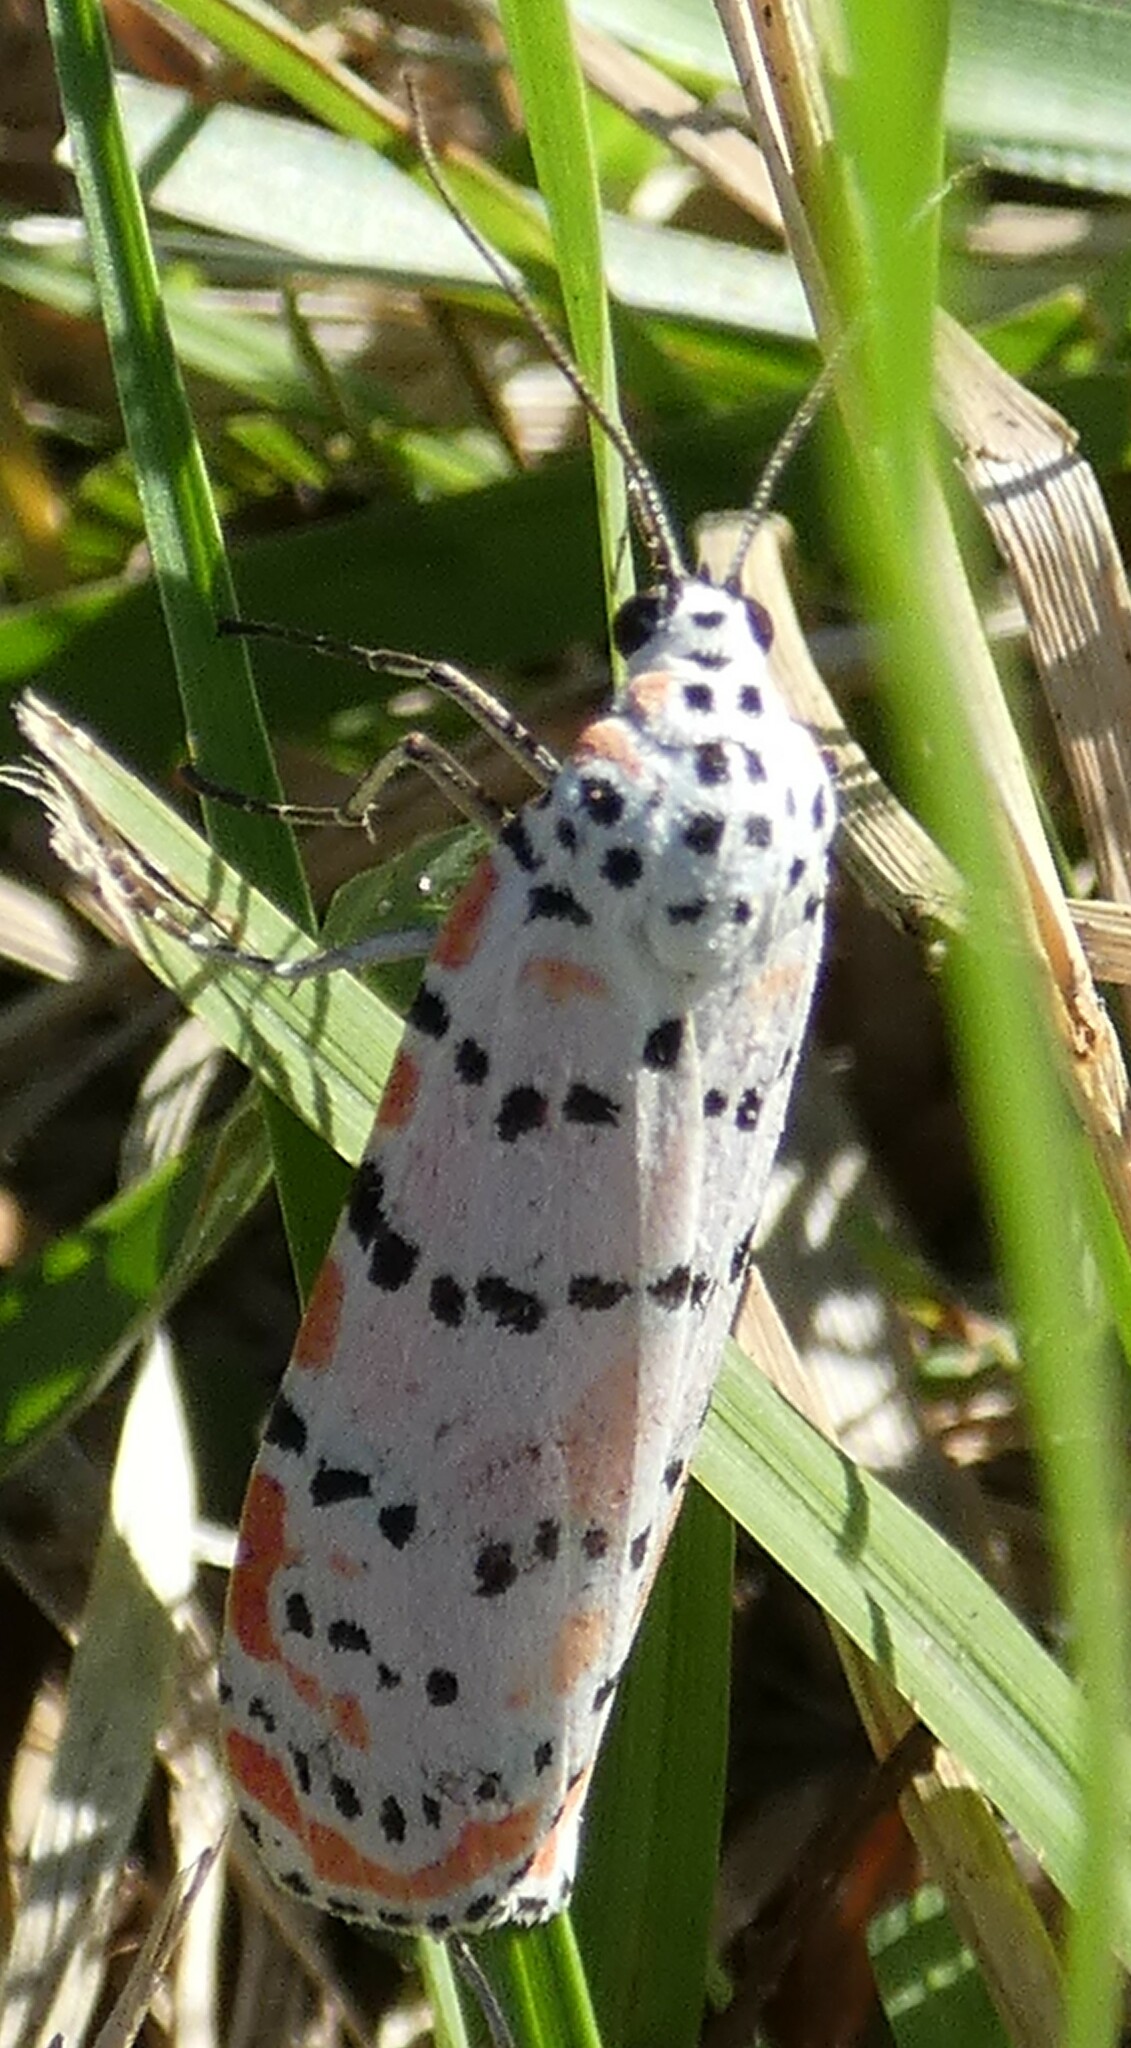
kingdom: Animalia
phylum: Arthropoda
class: Insecta
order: Lepidoptera
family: Erebidae
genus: Utetheisa
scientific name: Utetheisa ornatrix
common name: Beautiful utetheisa
